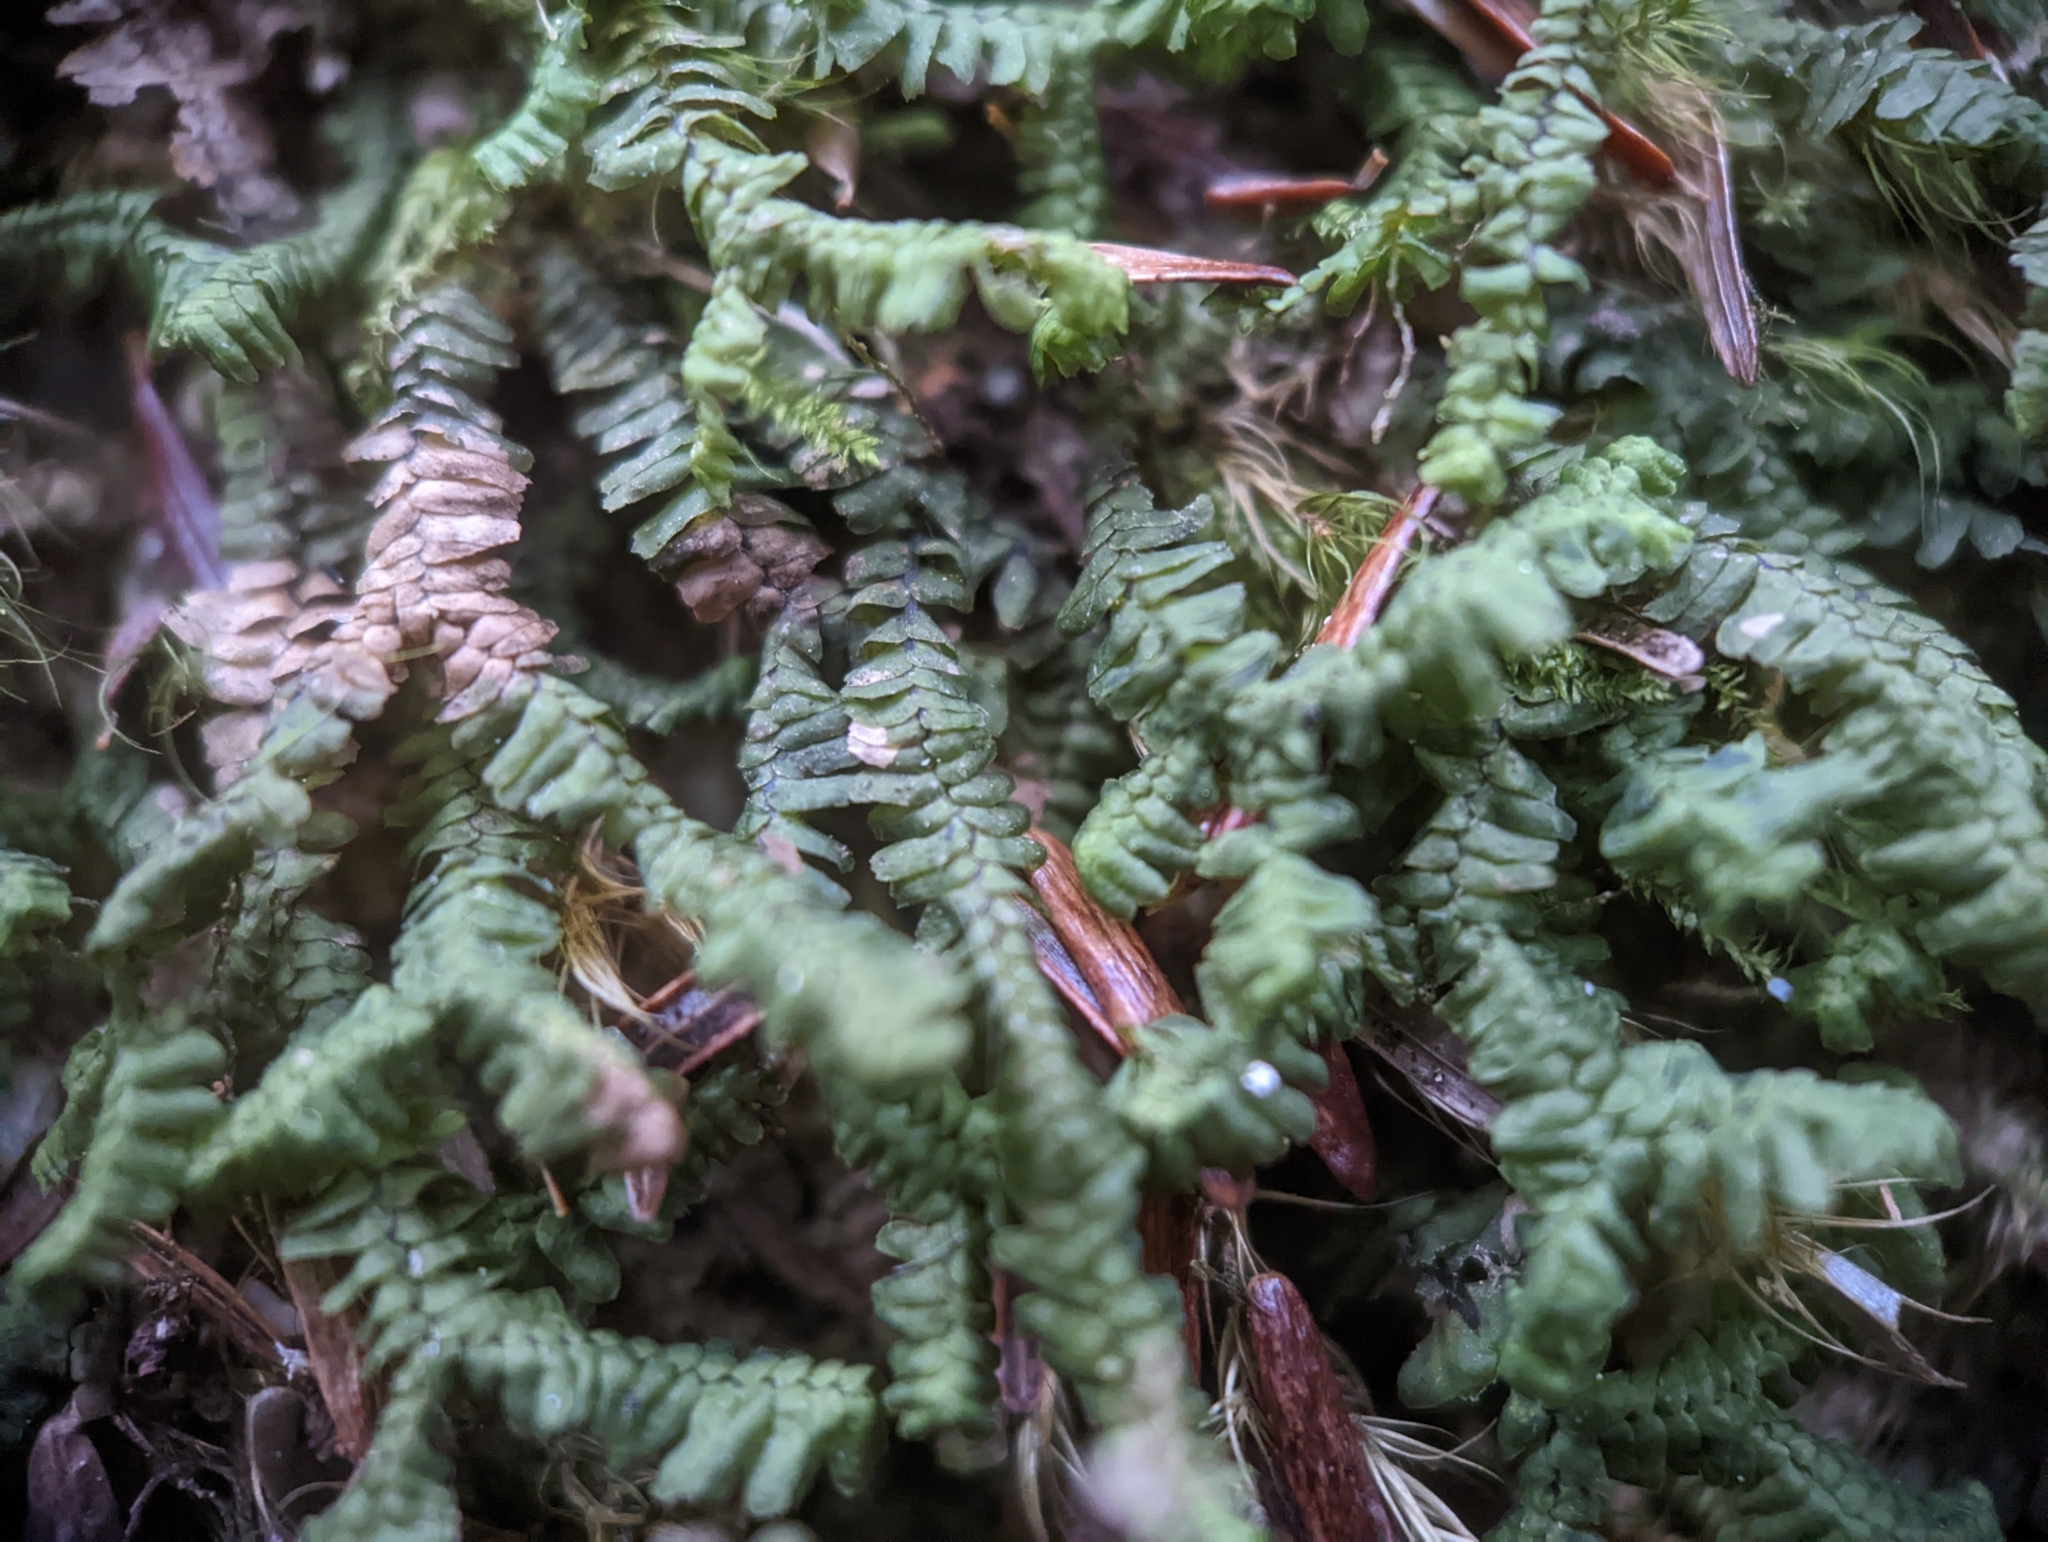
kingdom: Plantae
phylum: Marchantiophyta
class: Jungermanniopsida
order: Jungermanniales
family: Lepidoziaceae
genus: Bazzania
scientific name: Bazzania trilobata
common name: Three-lobed whipwort
